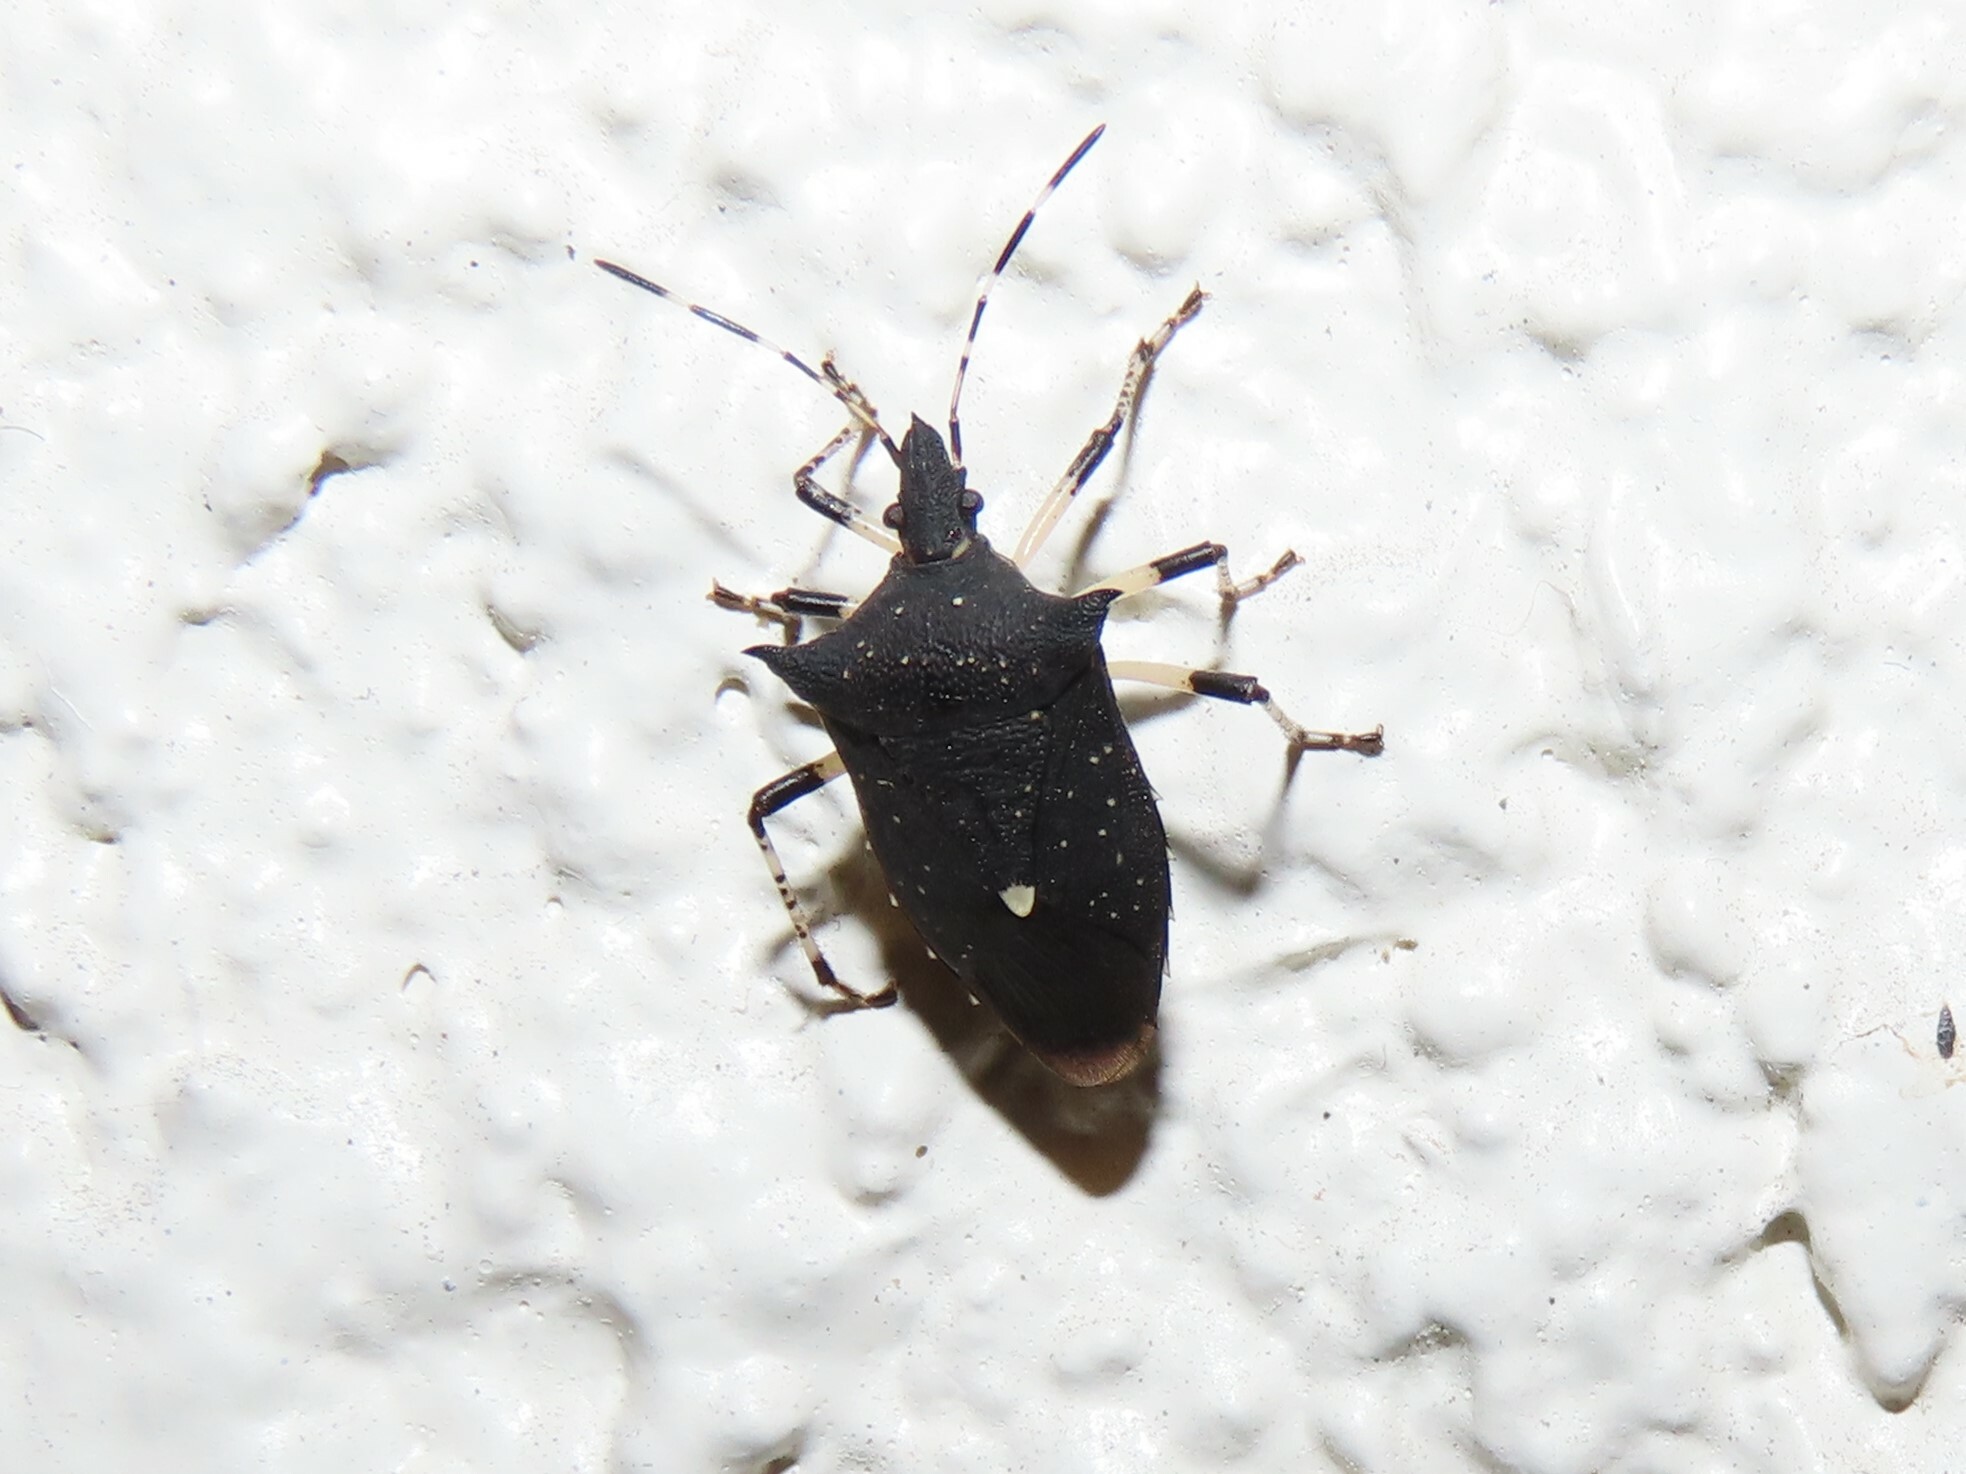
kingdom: Animalia
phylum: Arthropoda
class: Insecta
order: Hemiptera
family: Pentatomidae
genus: Proxys
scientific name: Proxys punctulatus
